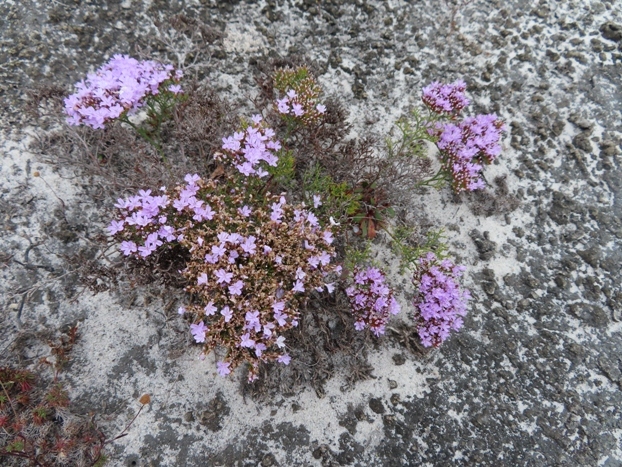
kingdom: Plantae
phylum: Tracheophyta
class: Magnoliopsida
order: Caryophyllales
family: Plumbaginaceae
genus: Limonium
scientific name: Limonium scabrum
